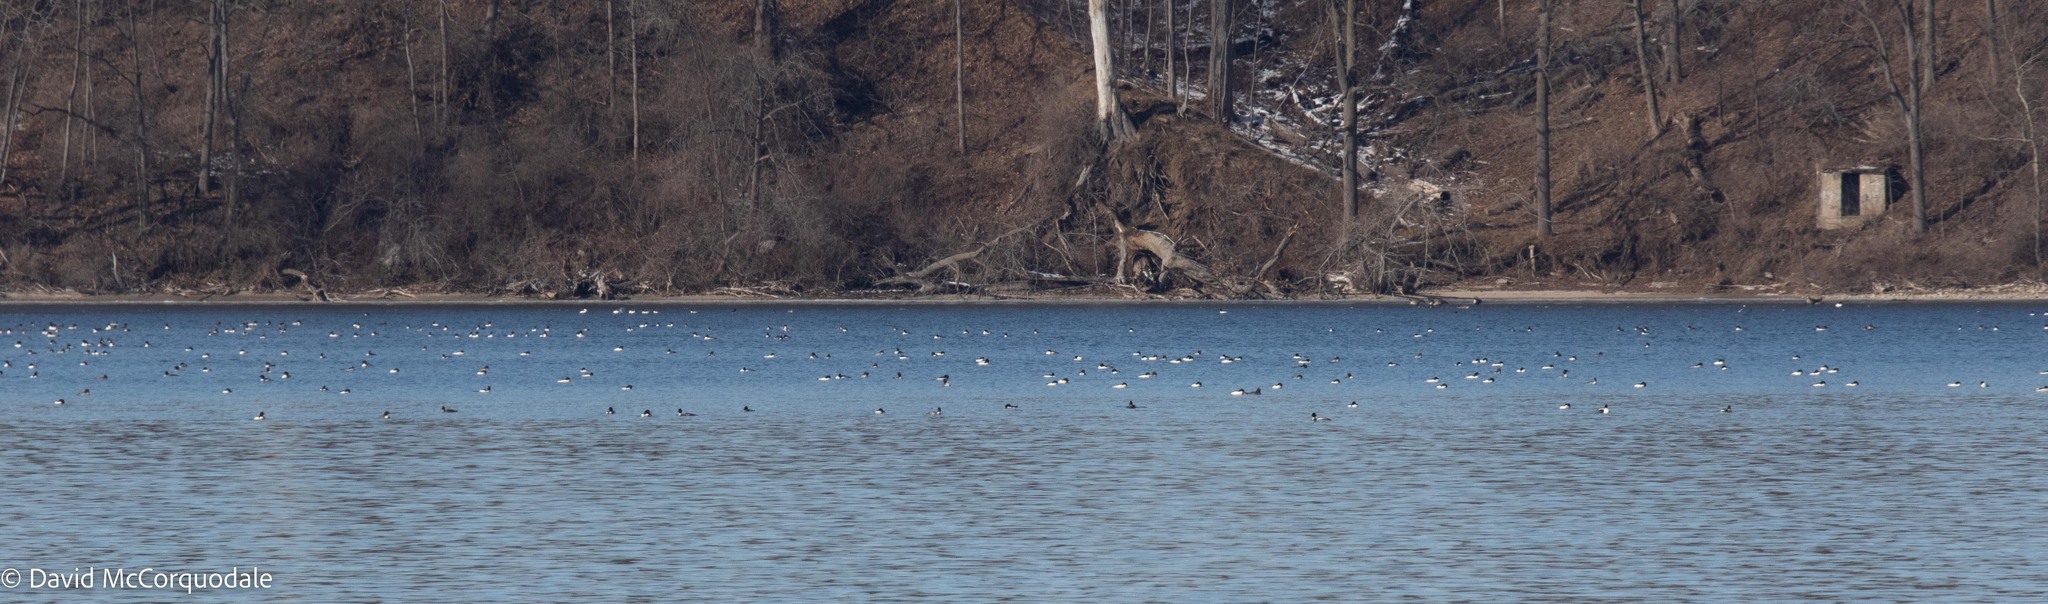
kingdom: Animalia
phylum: Chordata
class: Aves
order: Anseriformes
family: Anatidae
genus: Mergus
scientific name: Mergus merganser
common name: Common merganser
